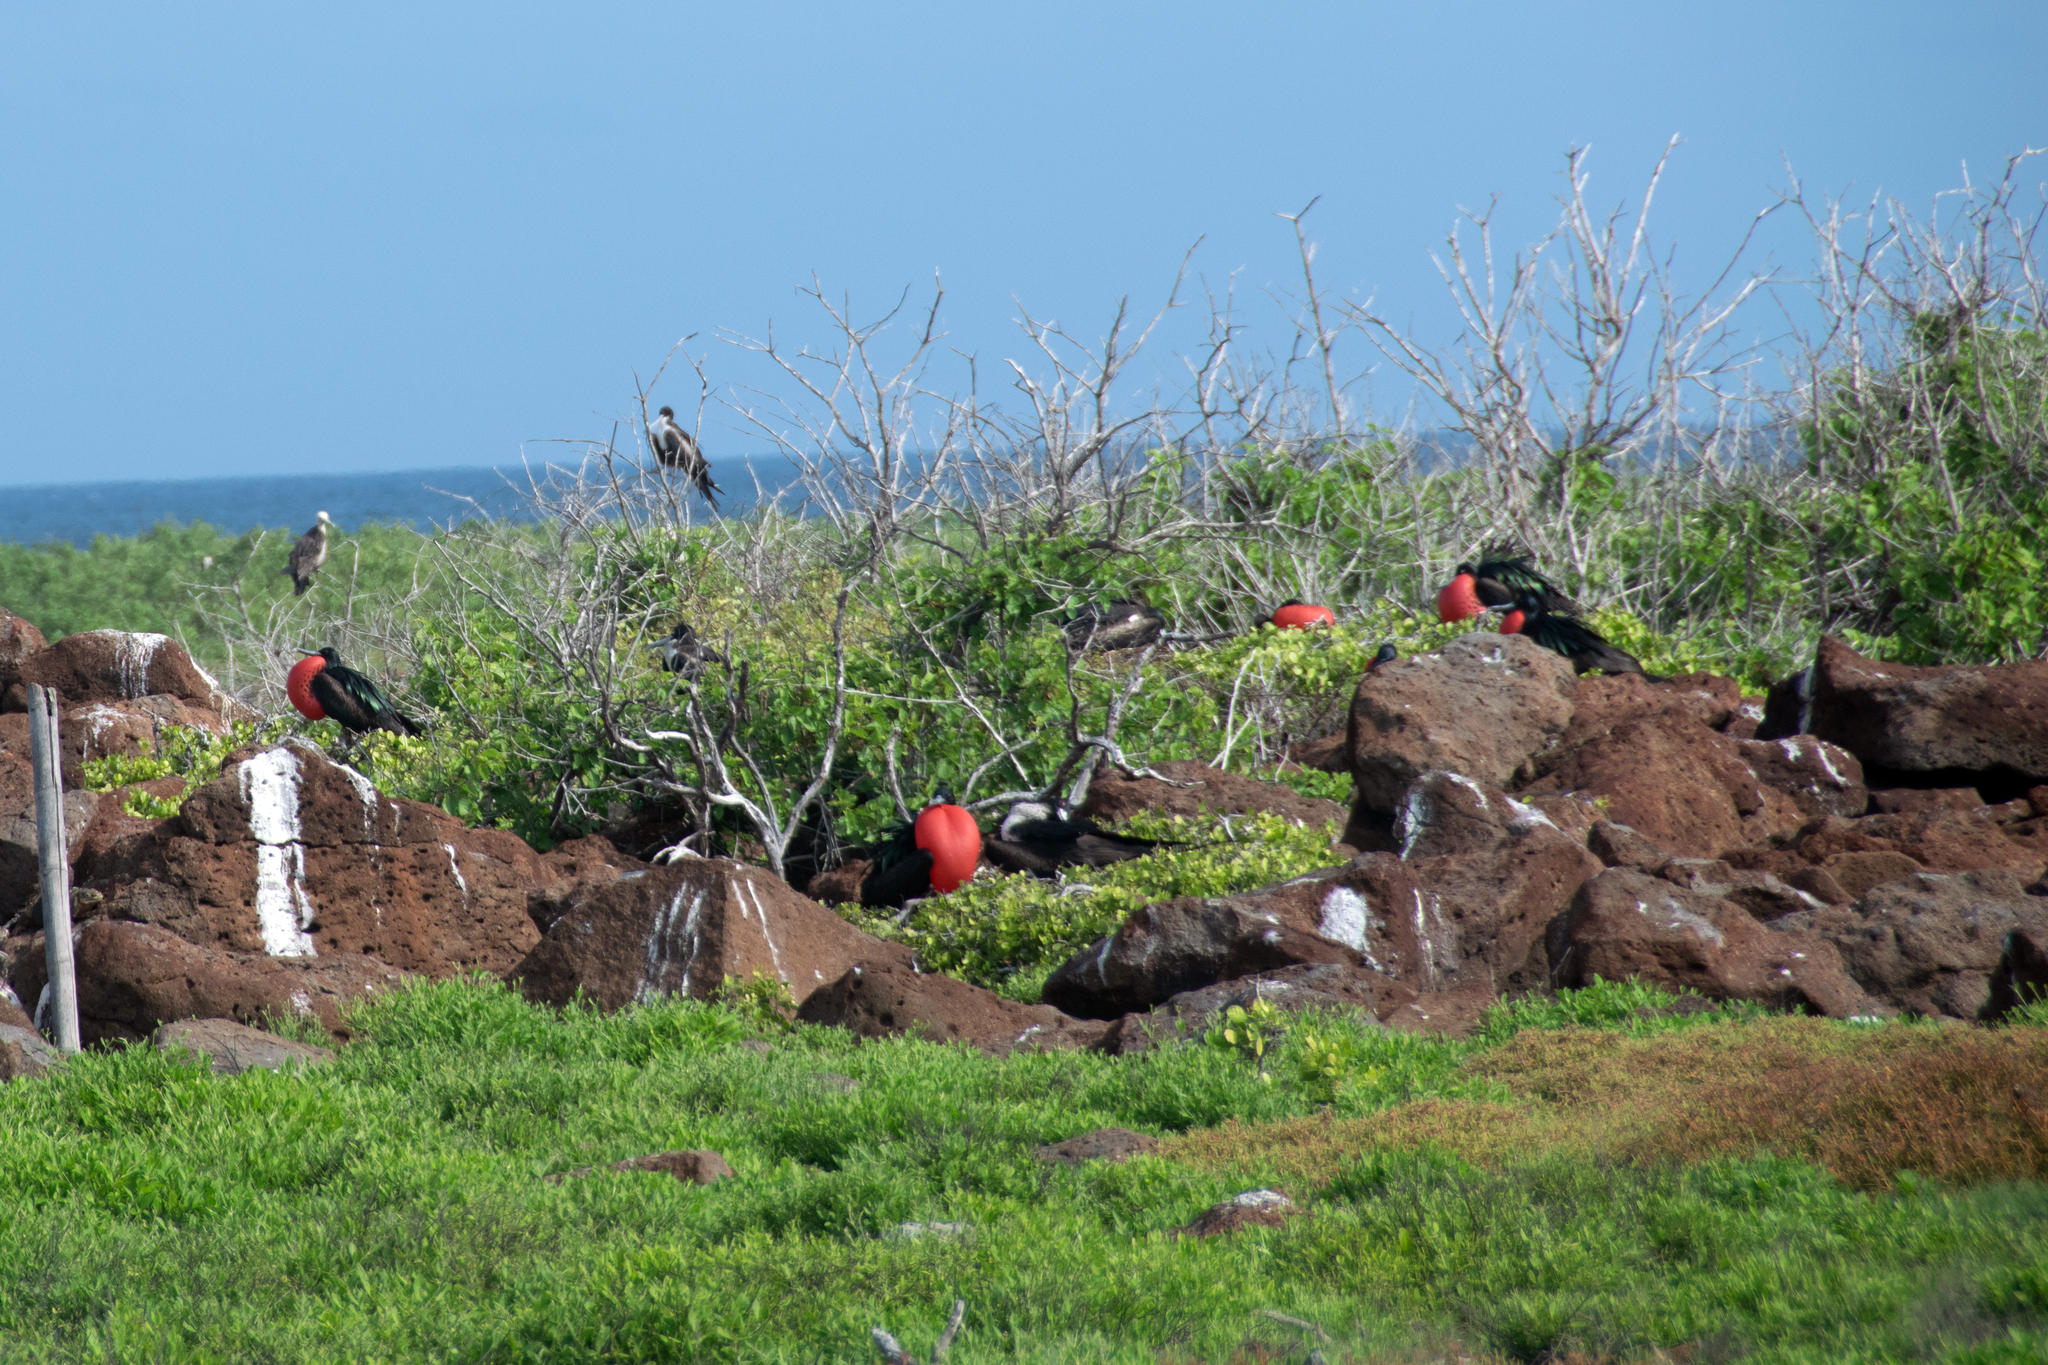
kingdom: Animalia
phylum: Chordata
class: Aves
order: Suliformes
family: Fregatidae
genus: Fregata
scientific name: Fregata minor
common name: Great frigatebird
